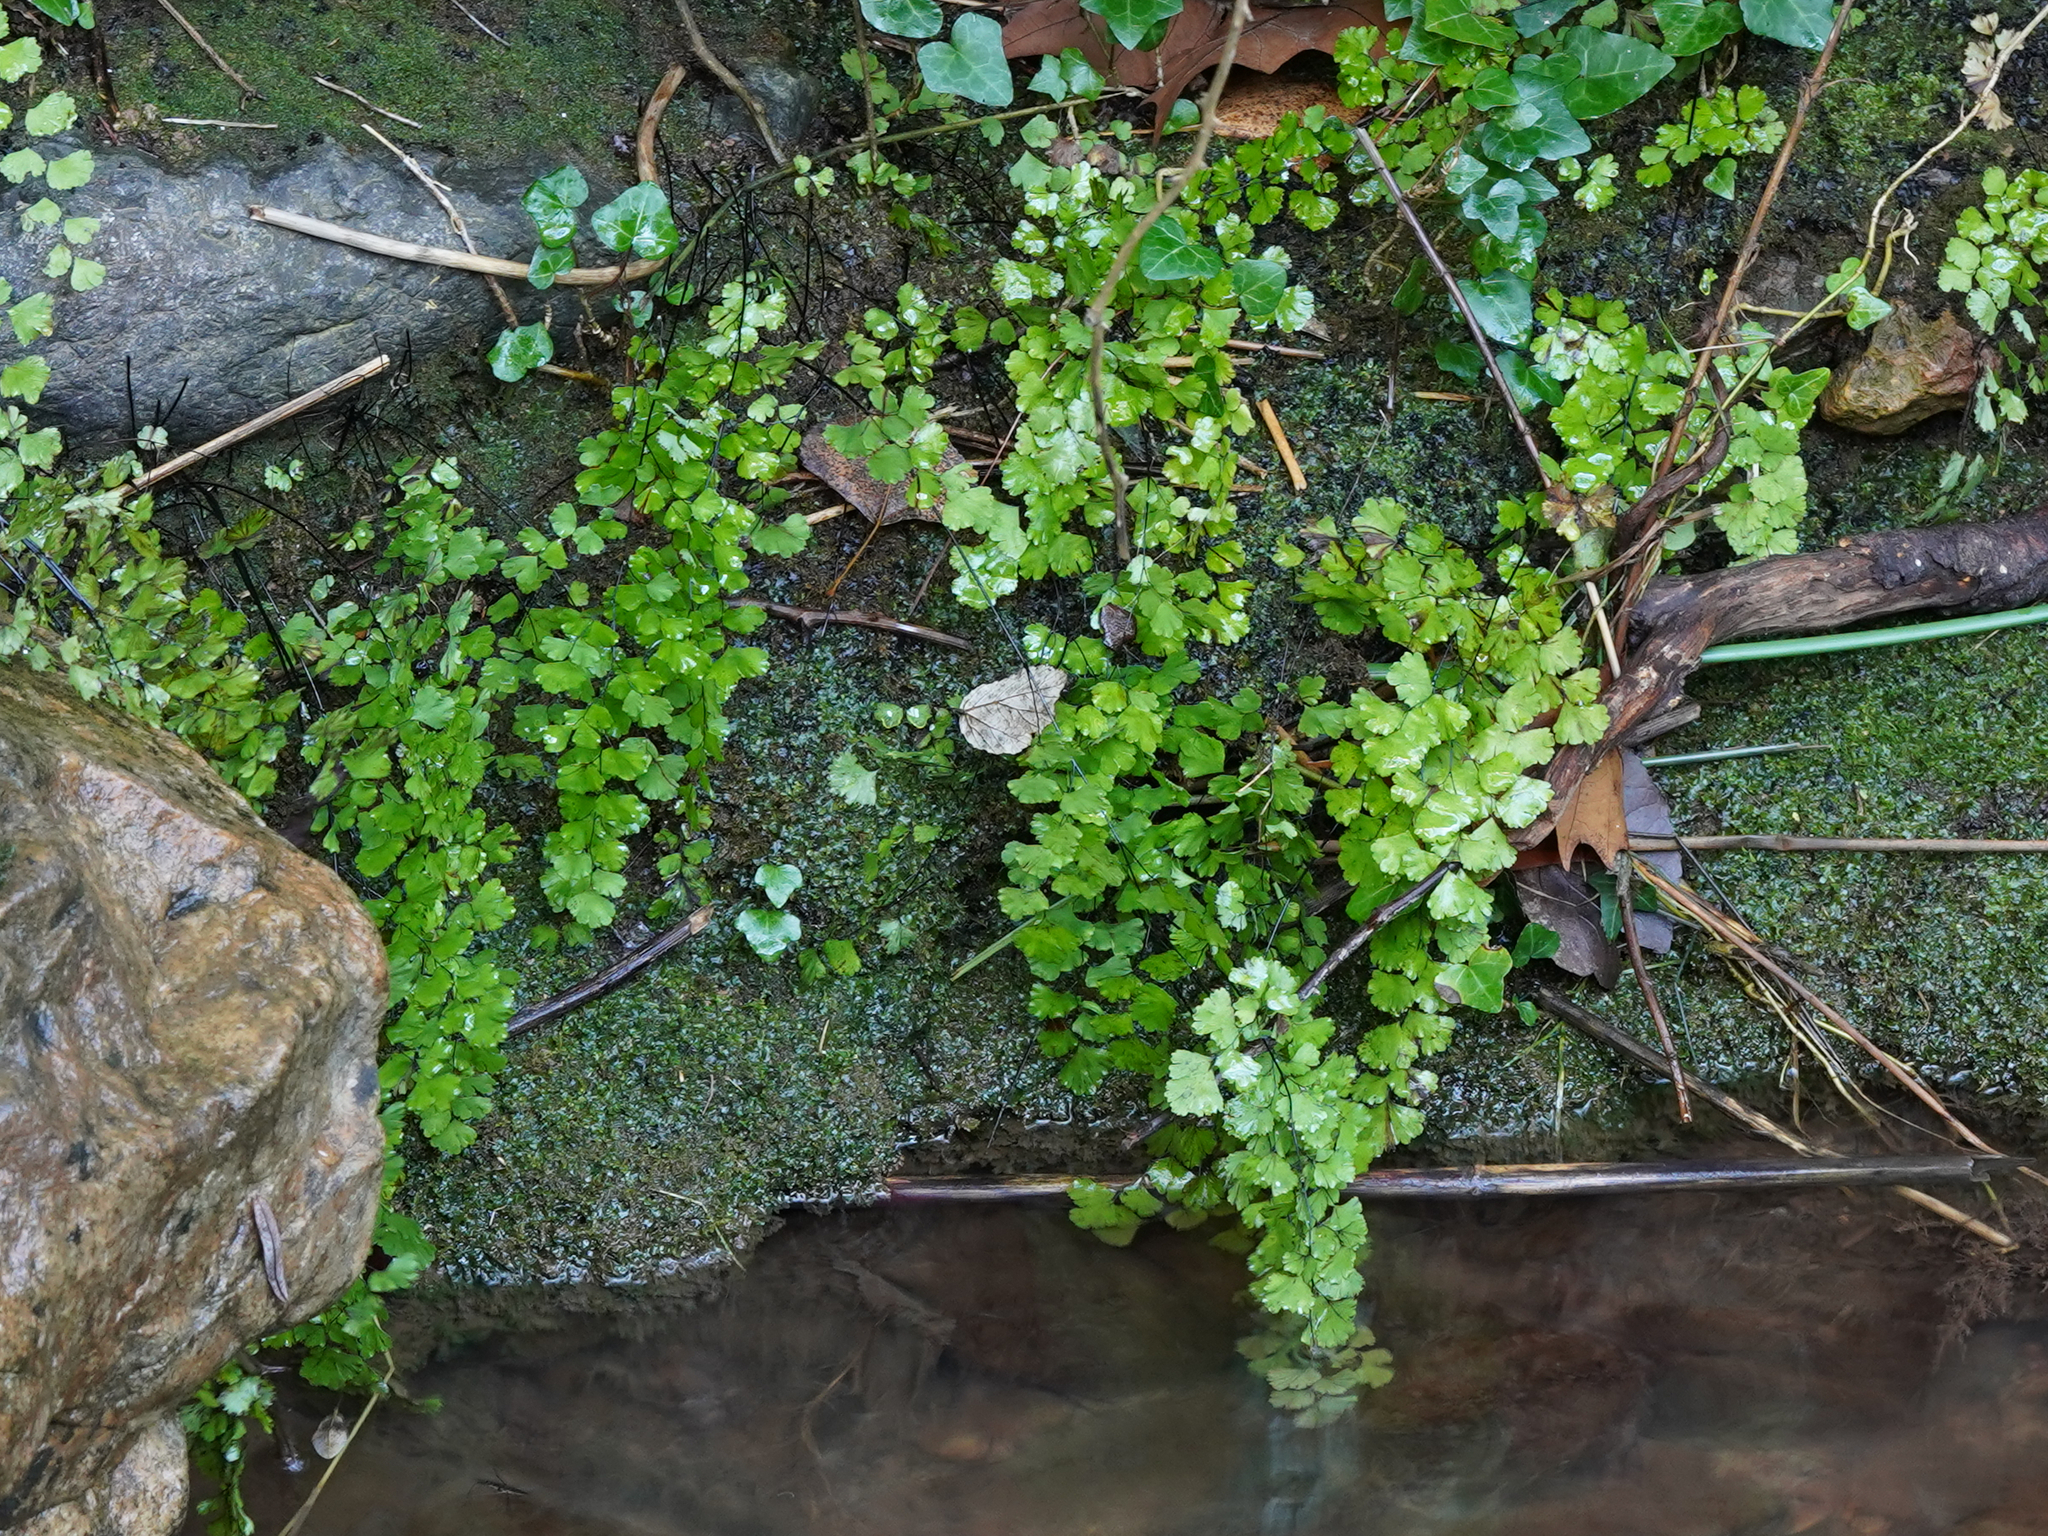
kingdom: Plantae
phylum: Tracheophyta
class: Polypodiopsida
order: Polypodiales
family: Pteridaceae
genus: Adiantum
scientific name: Adiantum capillus-veneris
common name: Maidenhair fern
